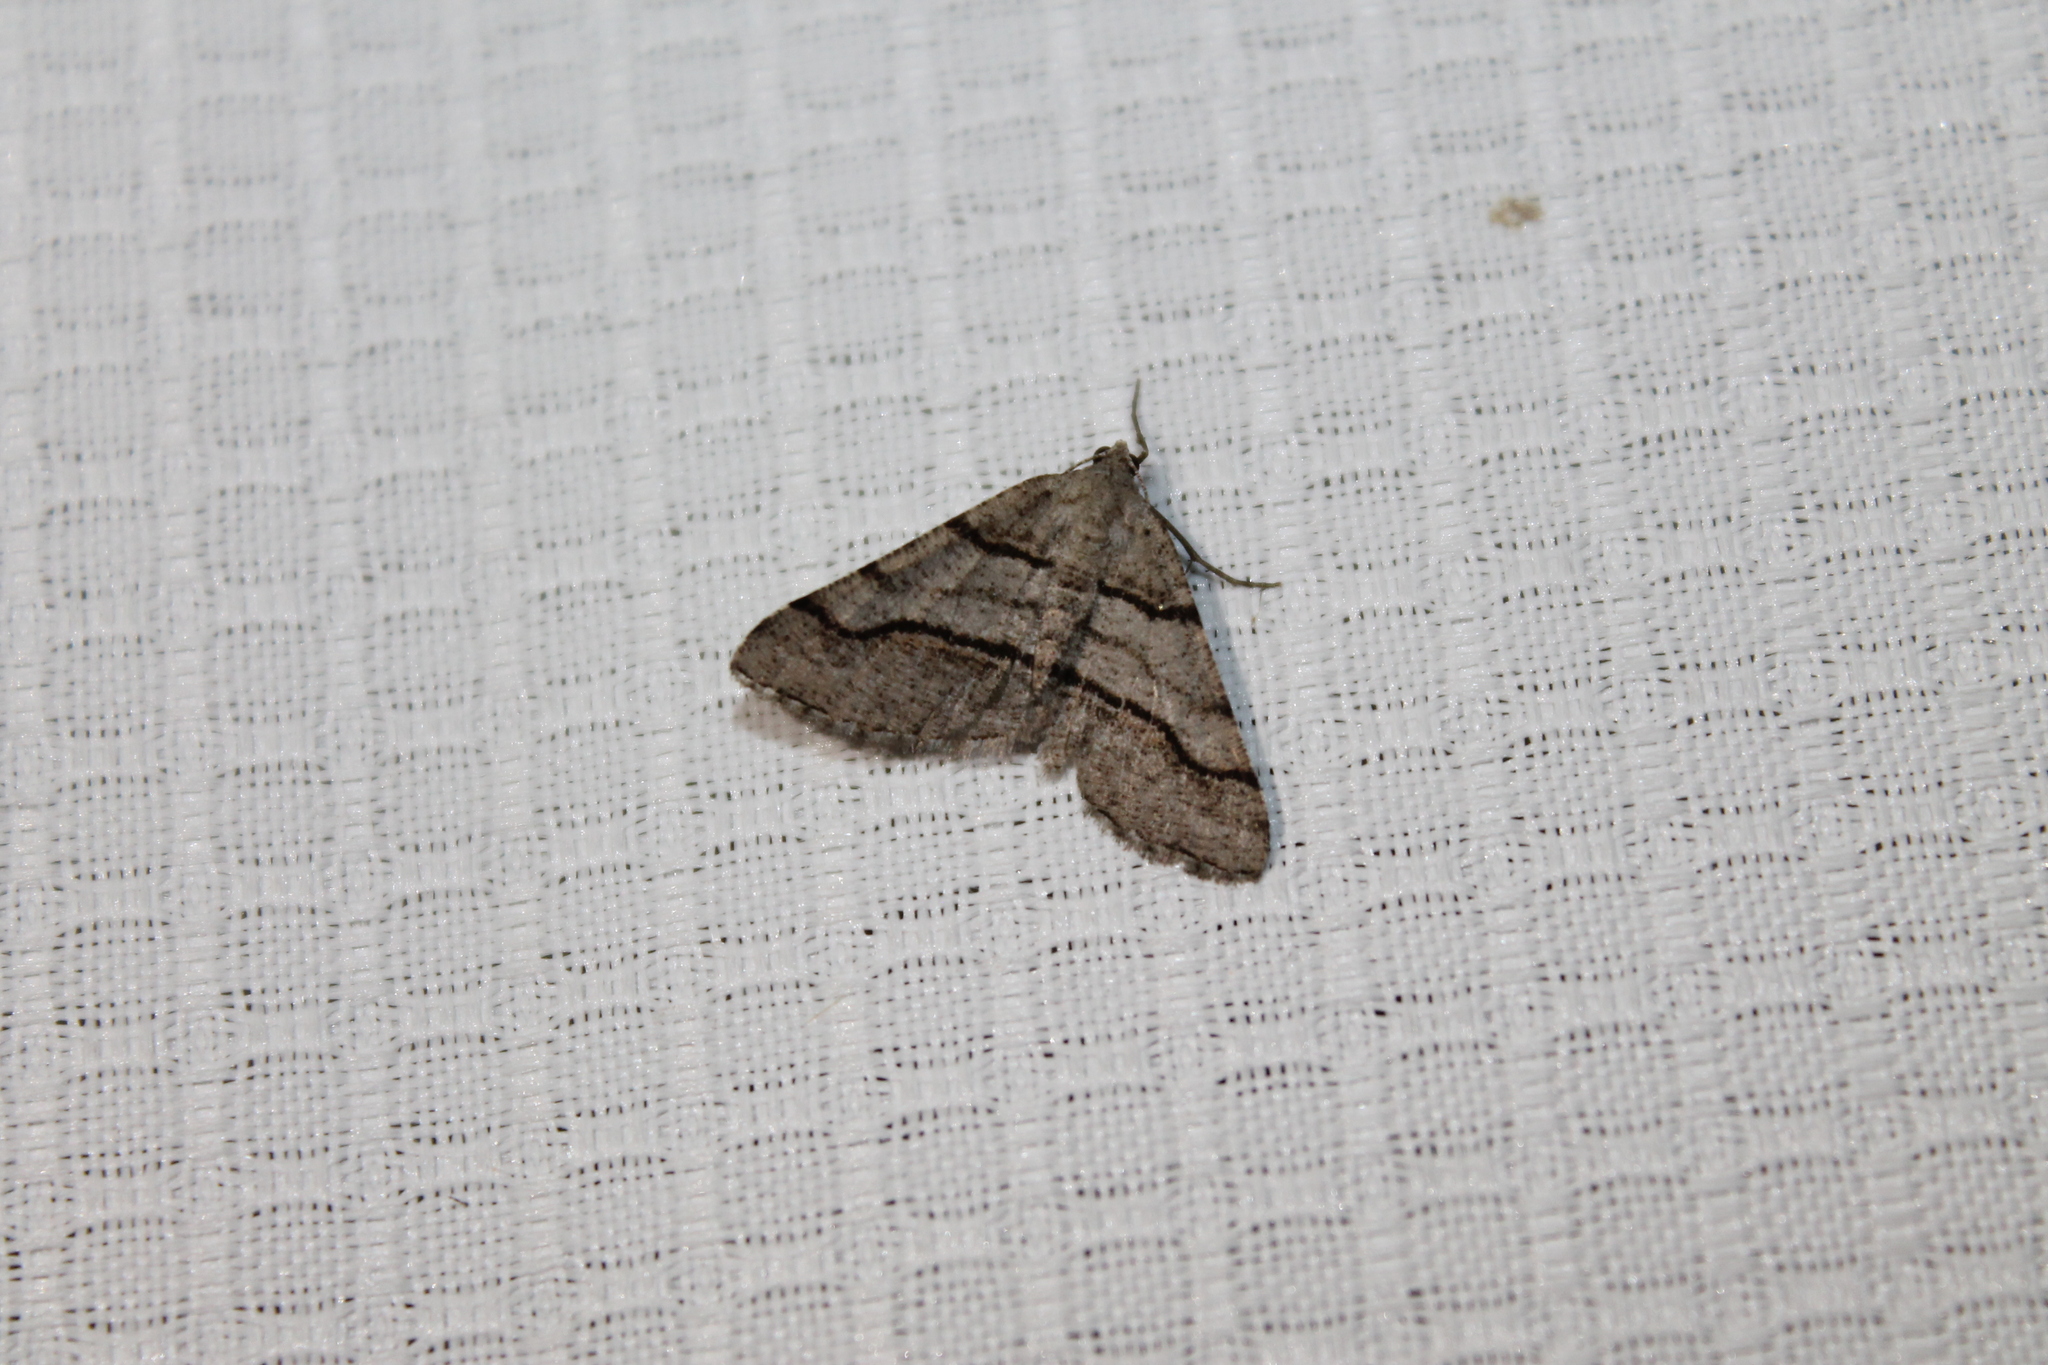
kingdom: Animalia
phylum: Arthropoda
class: Insecta
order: Lepidoptera
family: Geometridae
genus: Digrammia
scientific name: Digrammia continuata
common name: Curve-lined angle
